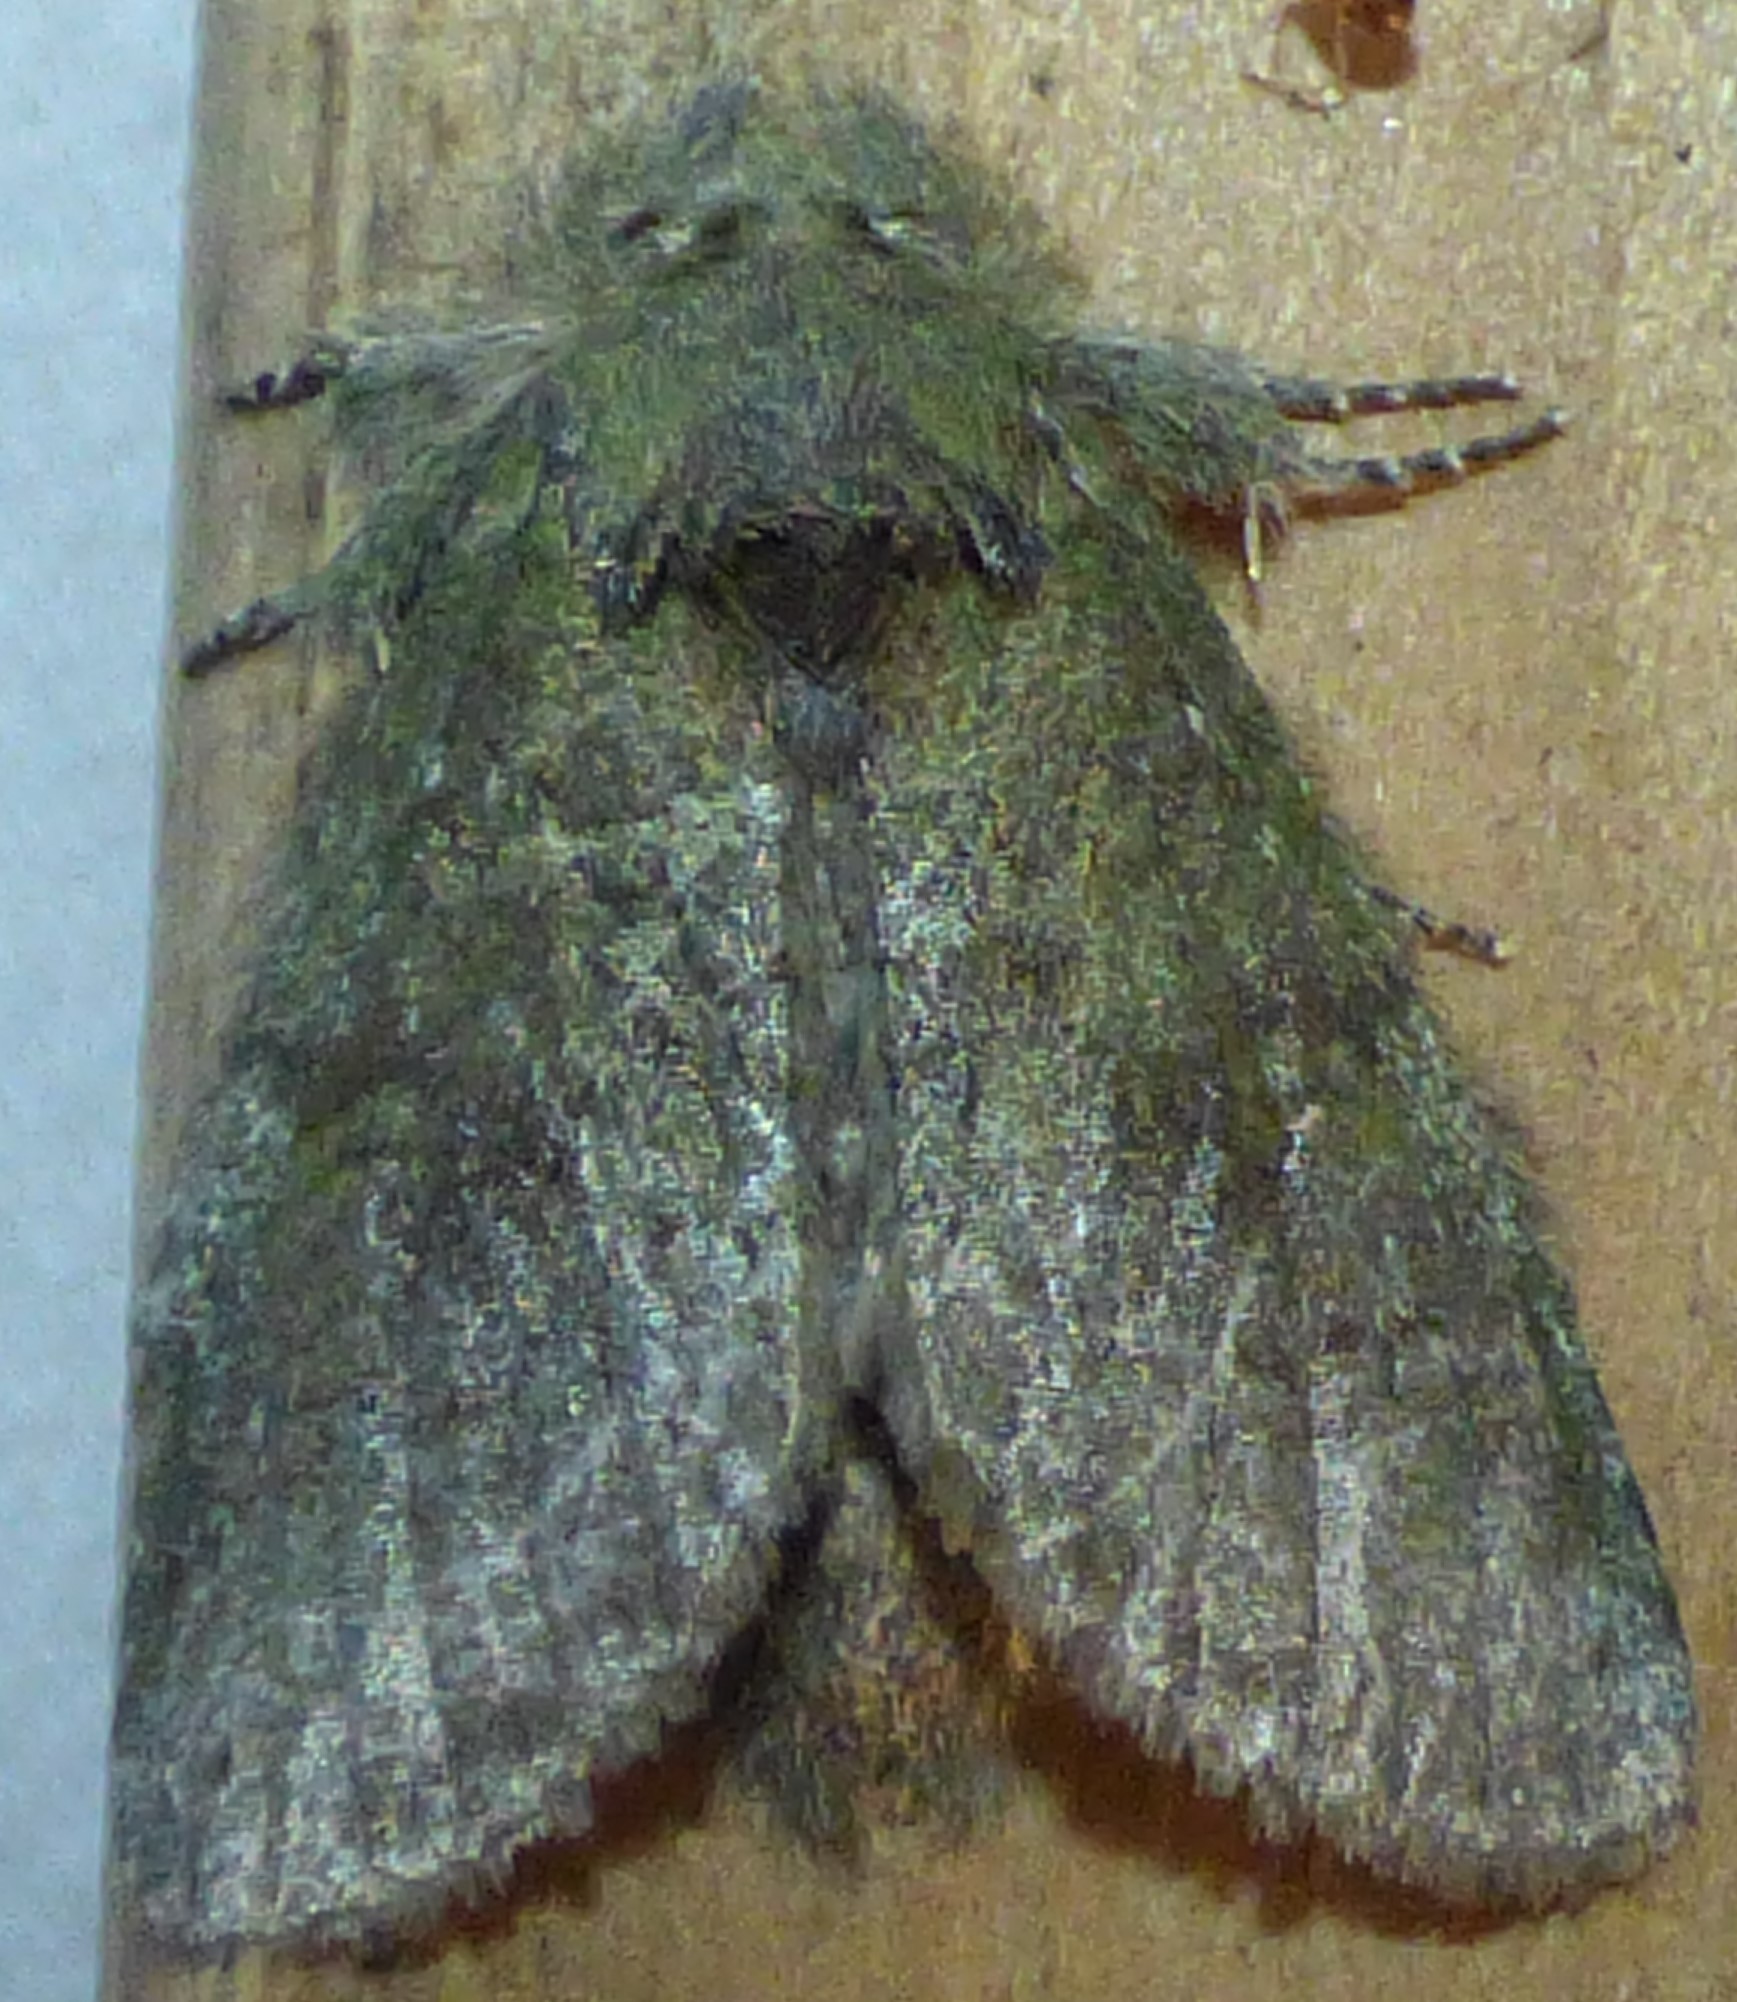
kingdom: Animalia
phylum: Arthropoda
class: Insecta
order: Lepidoptera
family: Notodontidae
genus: Disphragis
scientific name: Disphragis Cecrita guttivitta
